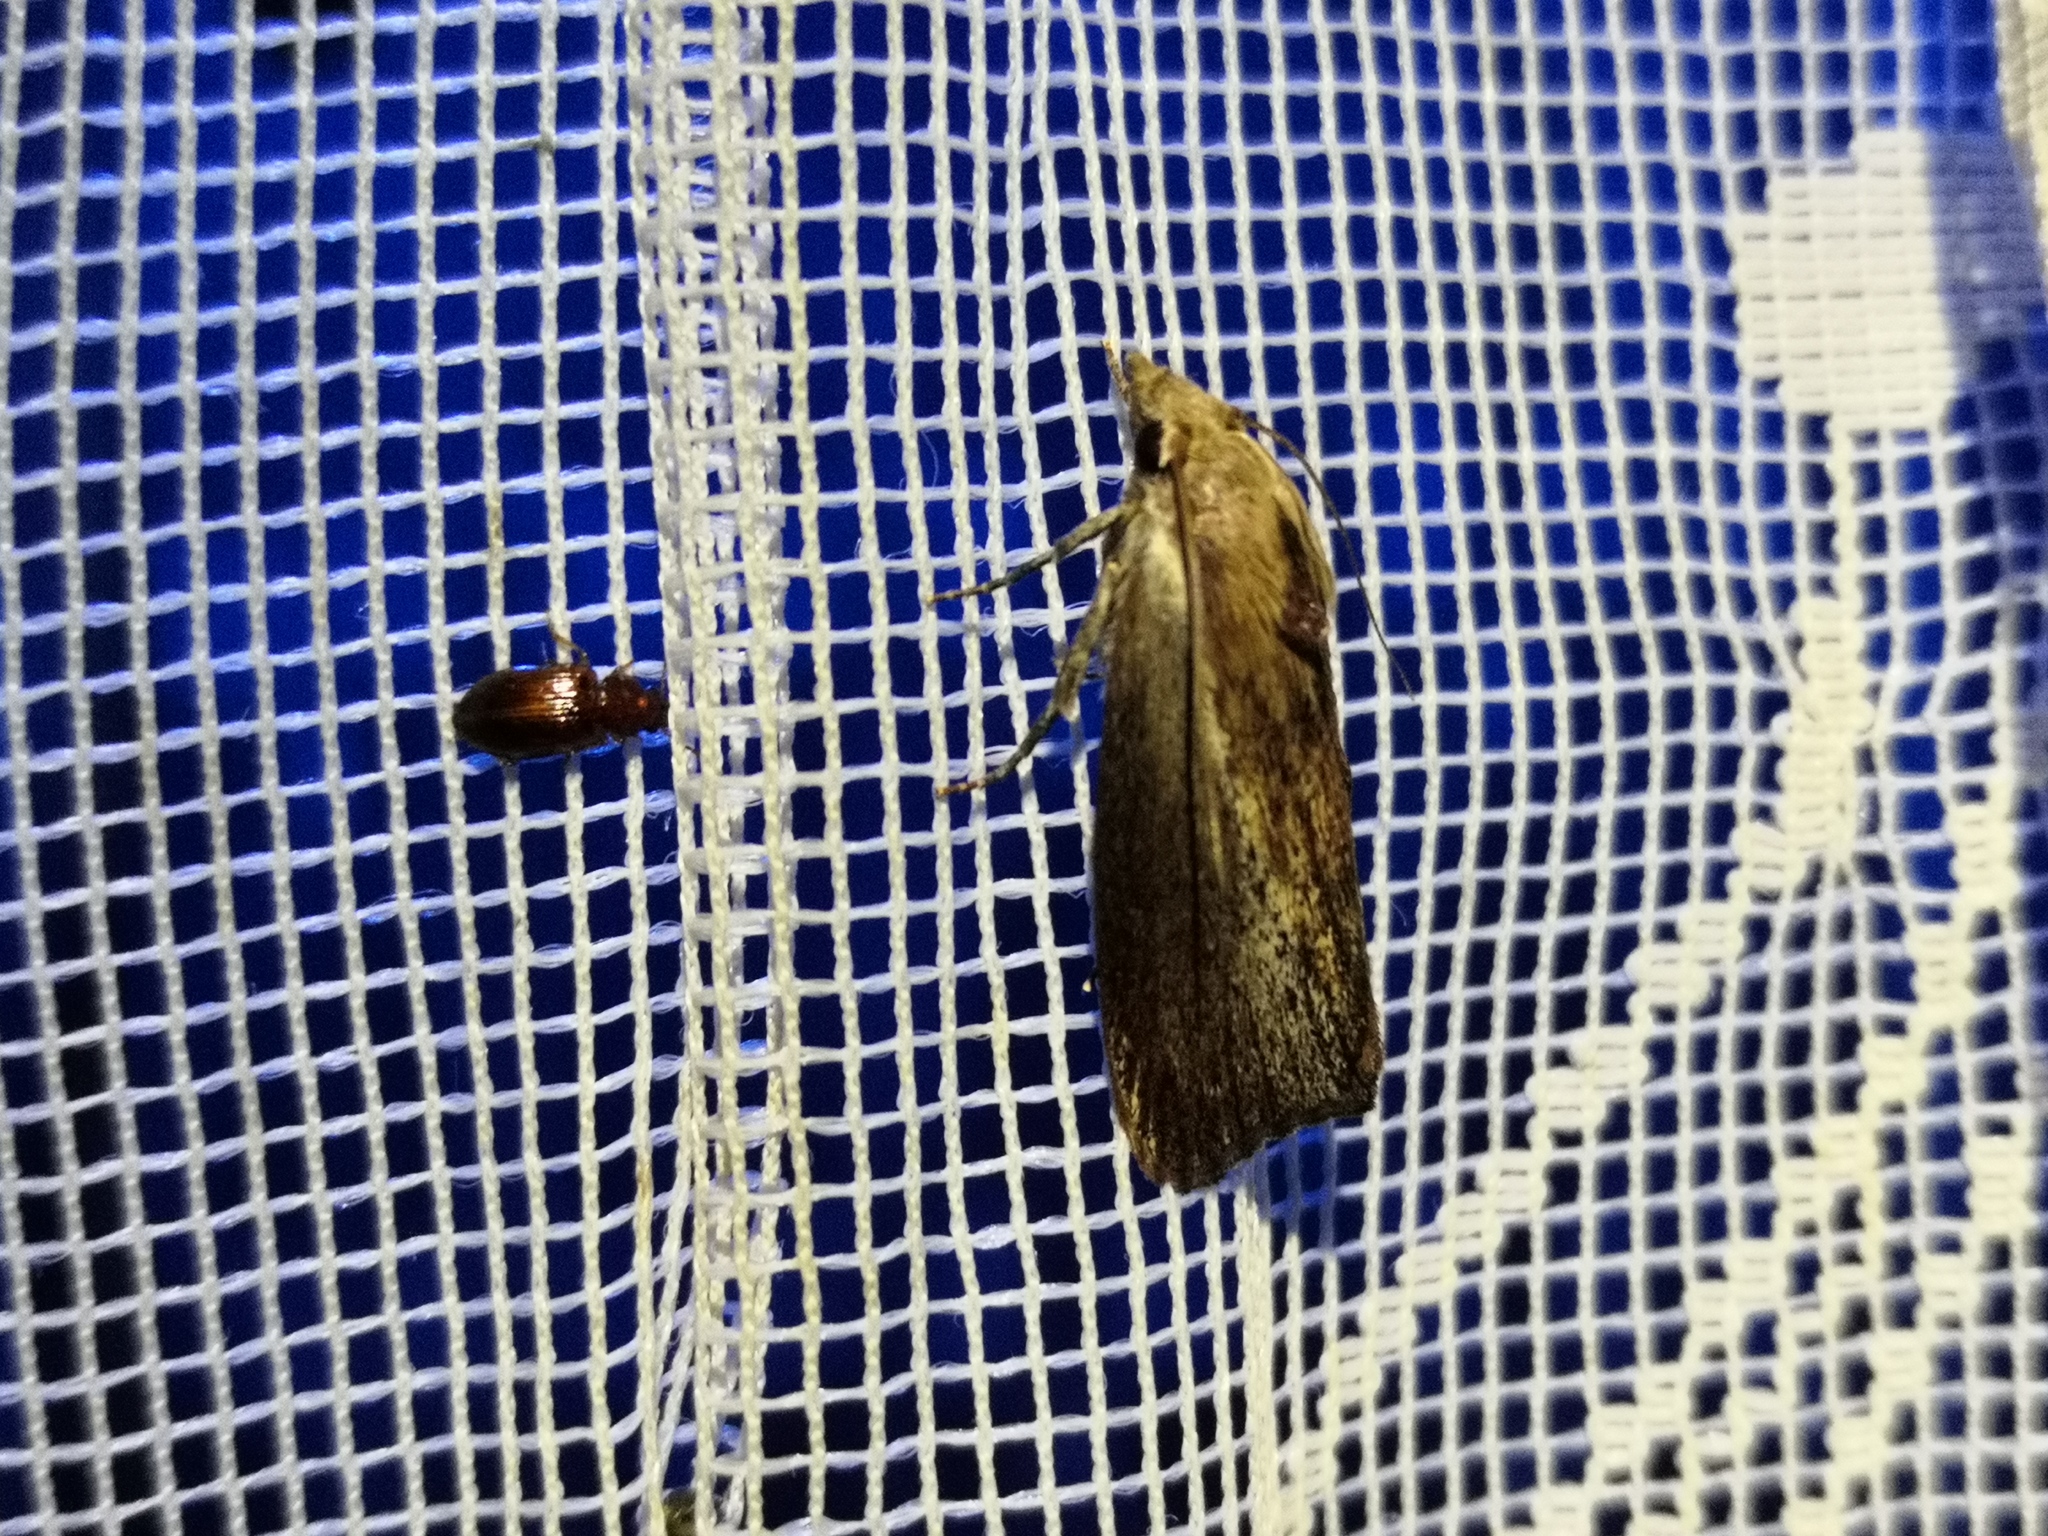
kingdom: Animalia
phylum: Arthropoda
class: Insecta
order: Lepidoptera
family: Pyralidae
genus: Galleria
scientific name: Galleria mellonella
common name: Greater wax moth
